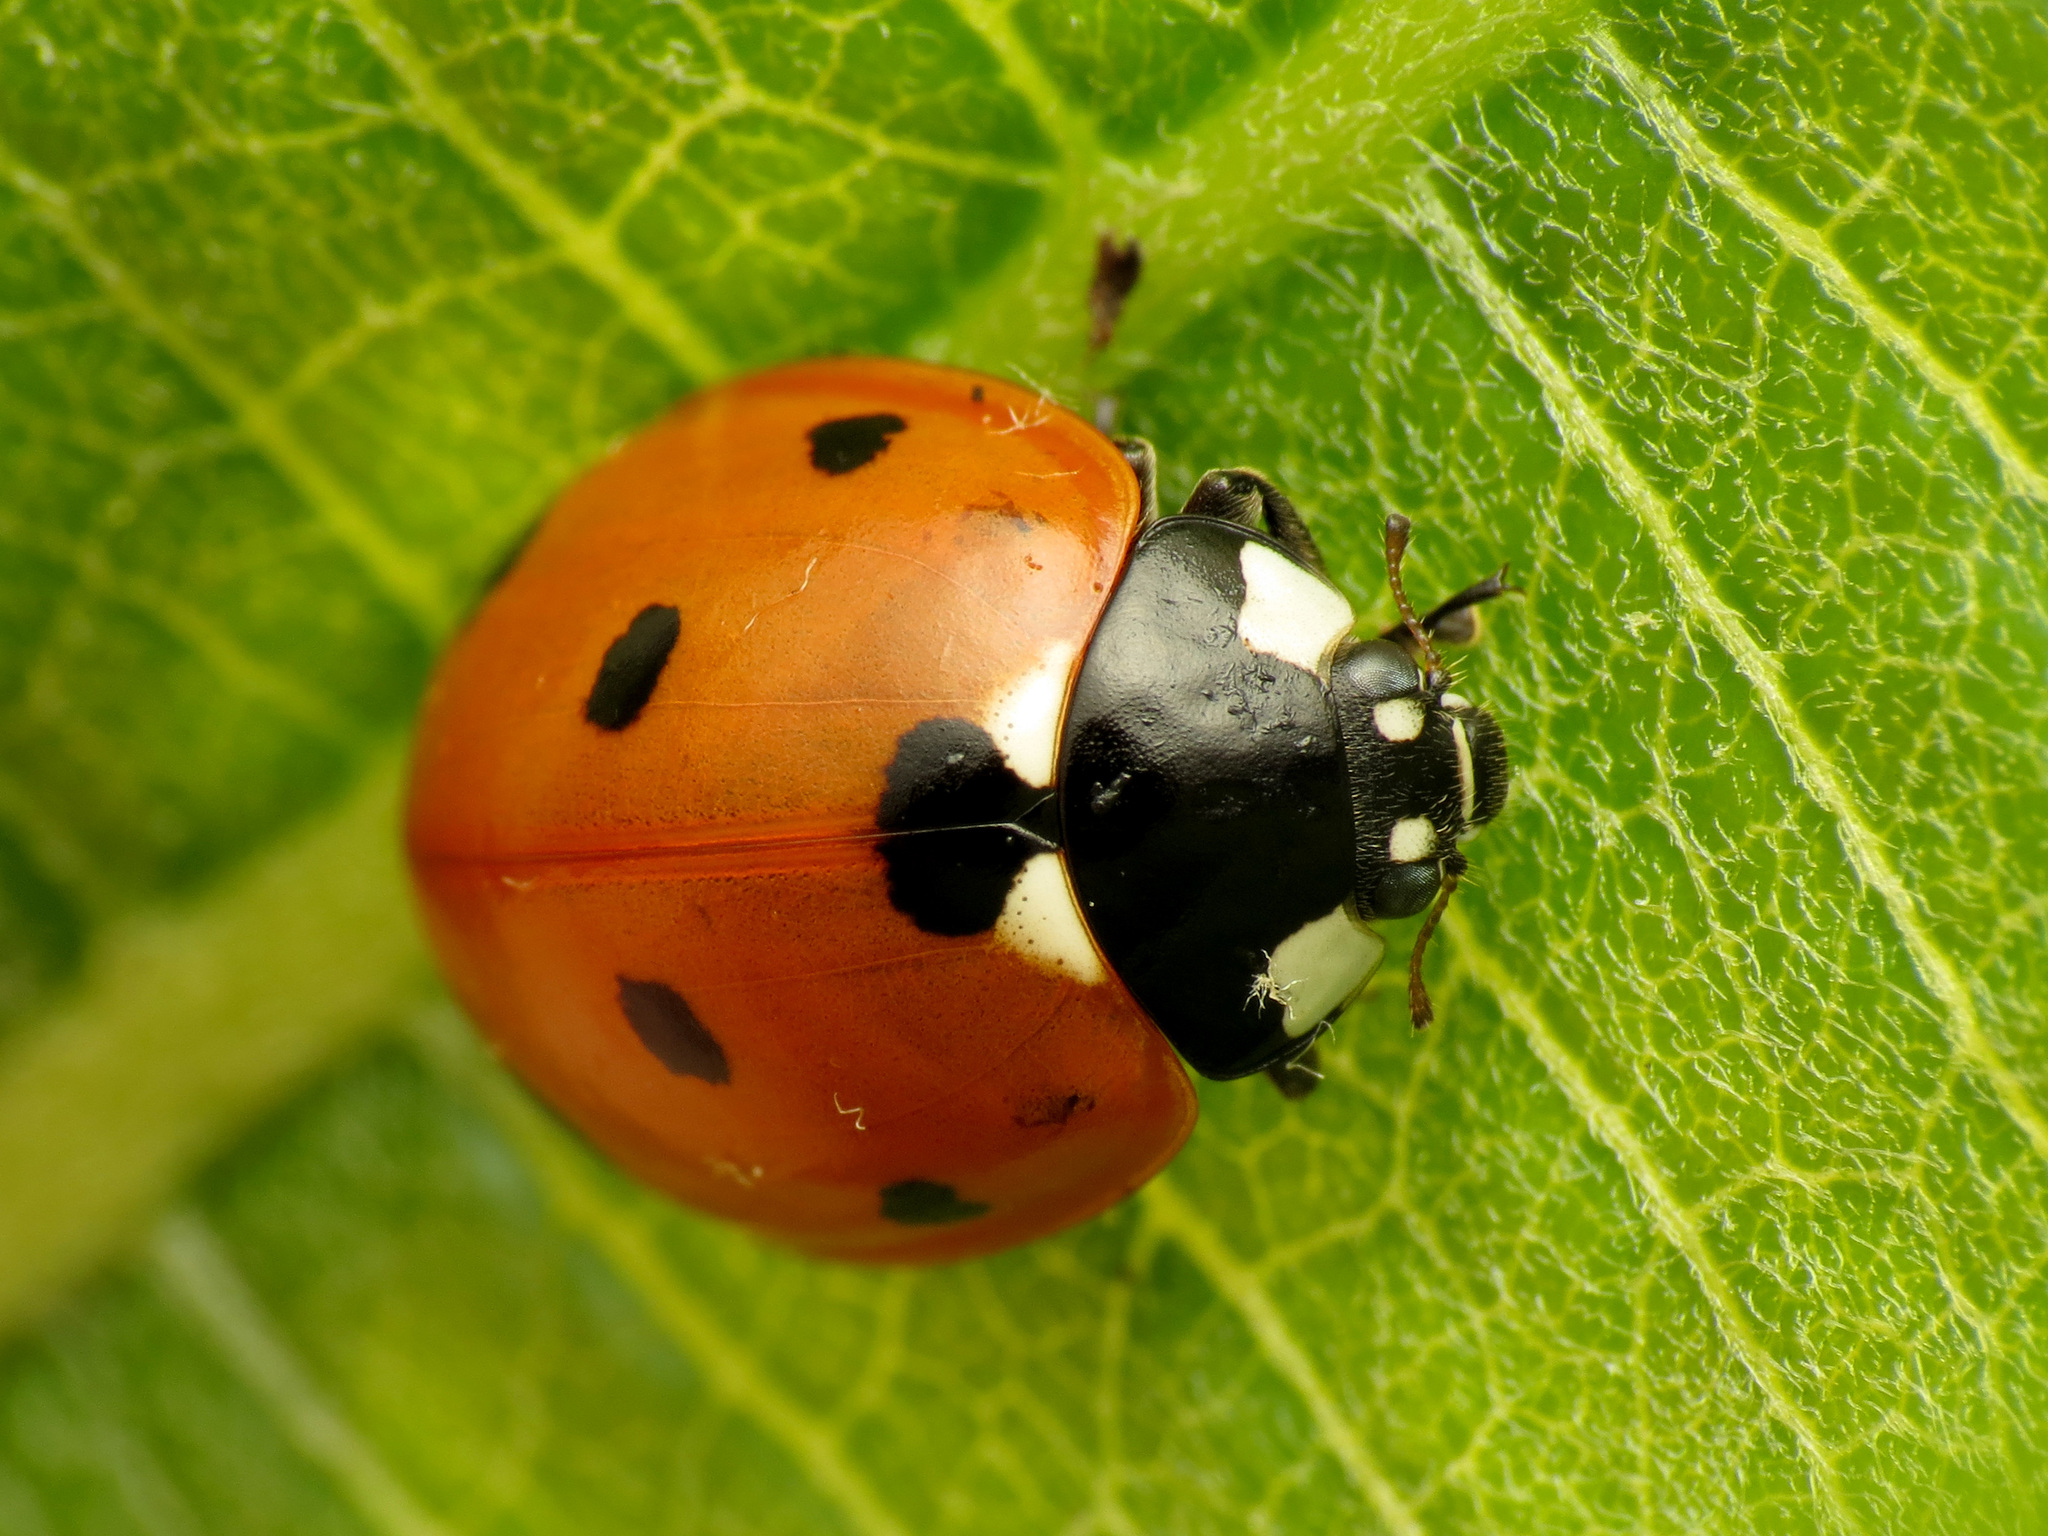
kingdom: Animalia
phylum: Arthropoda
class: Insecta
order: Coleoptera
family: Coccinellidae
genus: Coccinella
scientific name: Coccinella septempunctata
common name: Sevenspotted lady beetle
